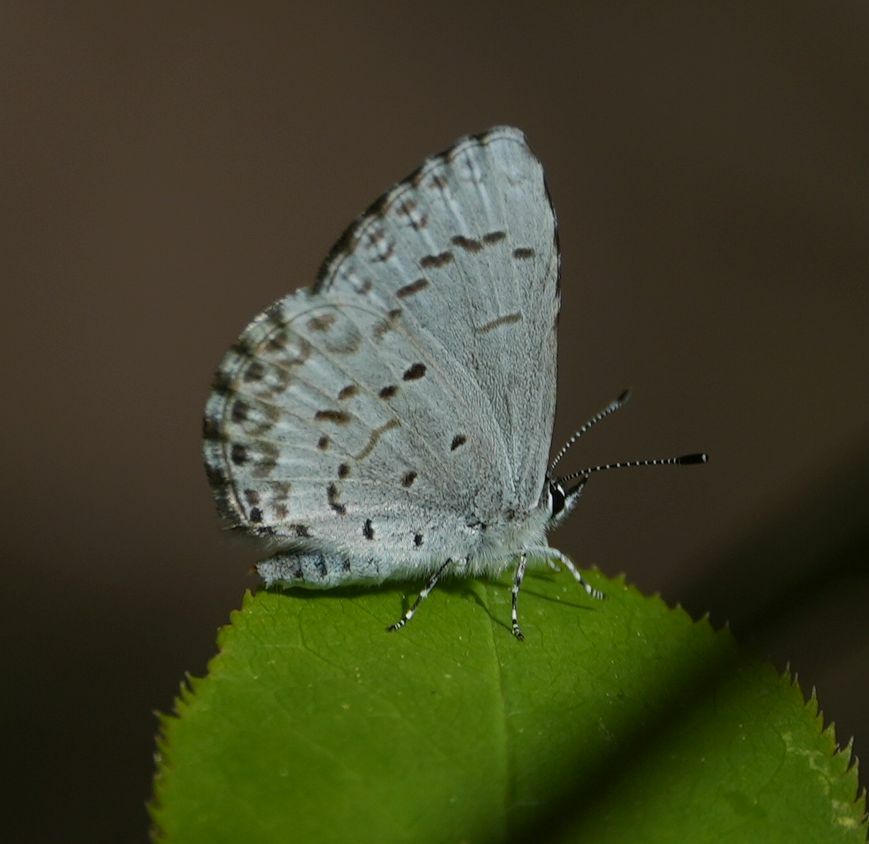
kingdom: Animalia
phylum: Arthropoda
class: Insecta
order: Lepidoptera
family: Lycaenidae
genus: Celastrina
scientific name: Celastrina lucia
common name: Lucia azure
